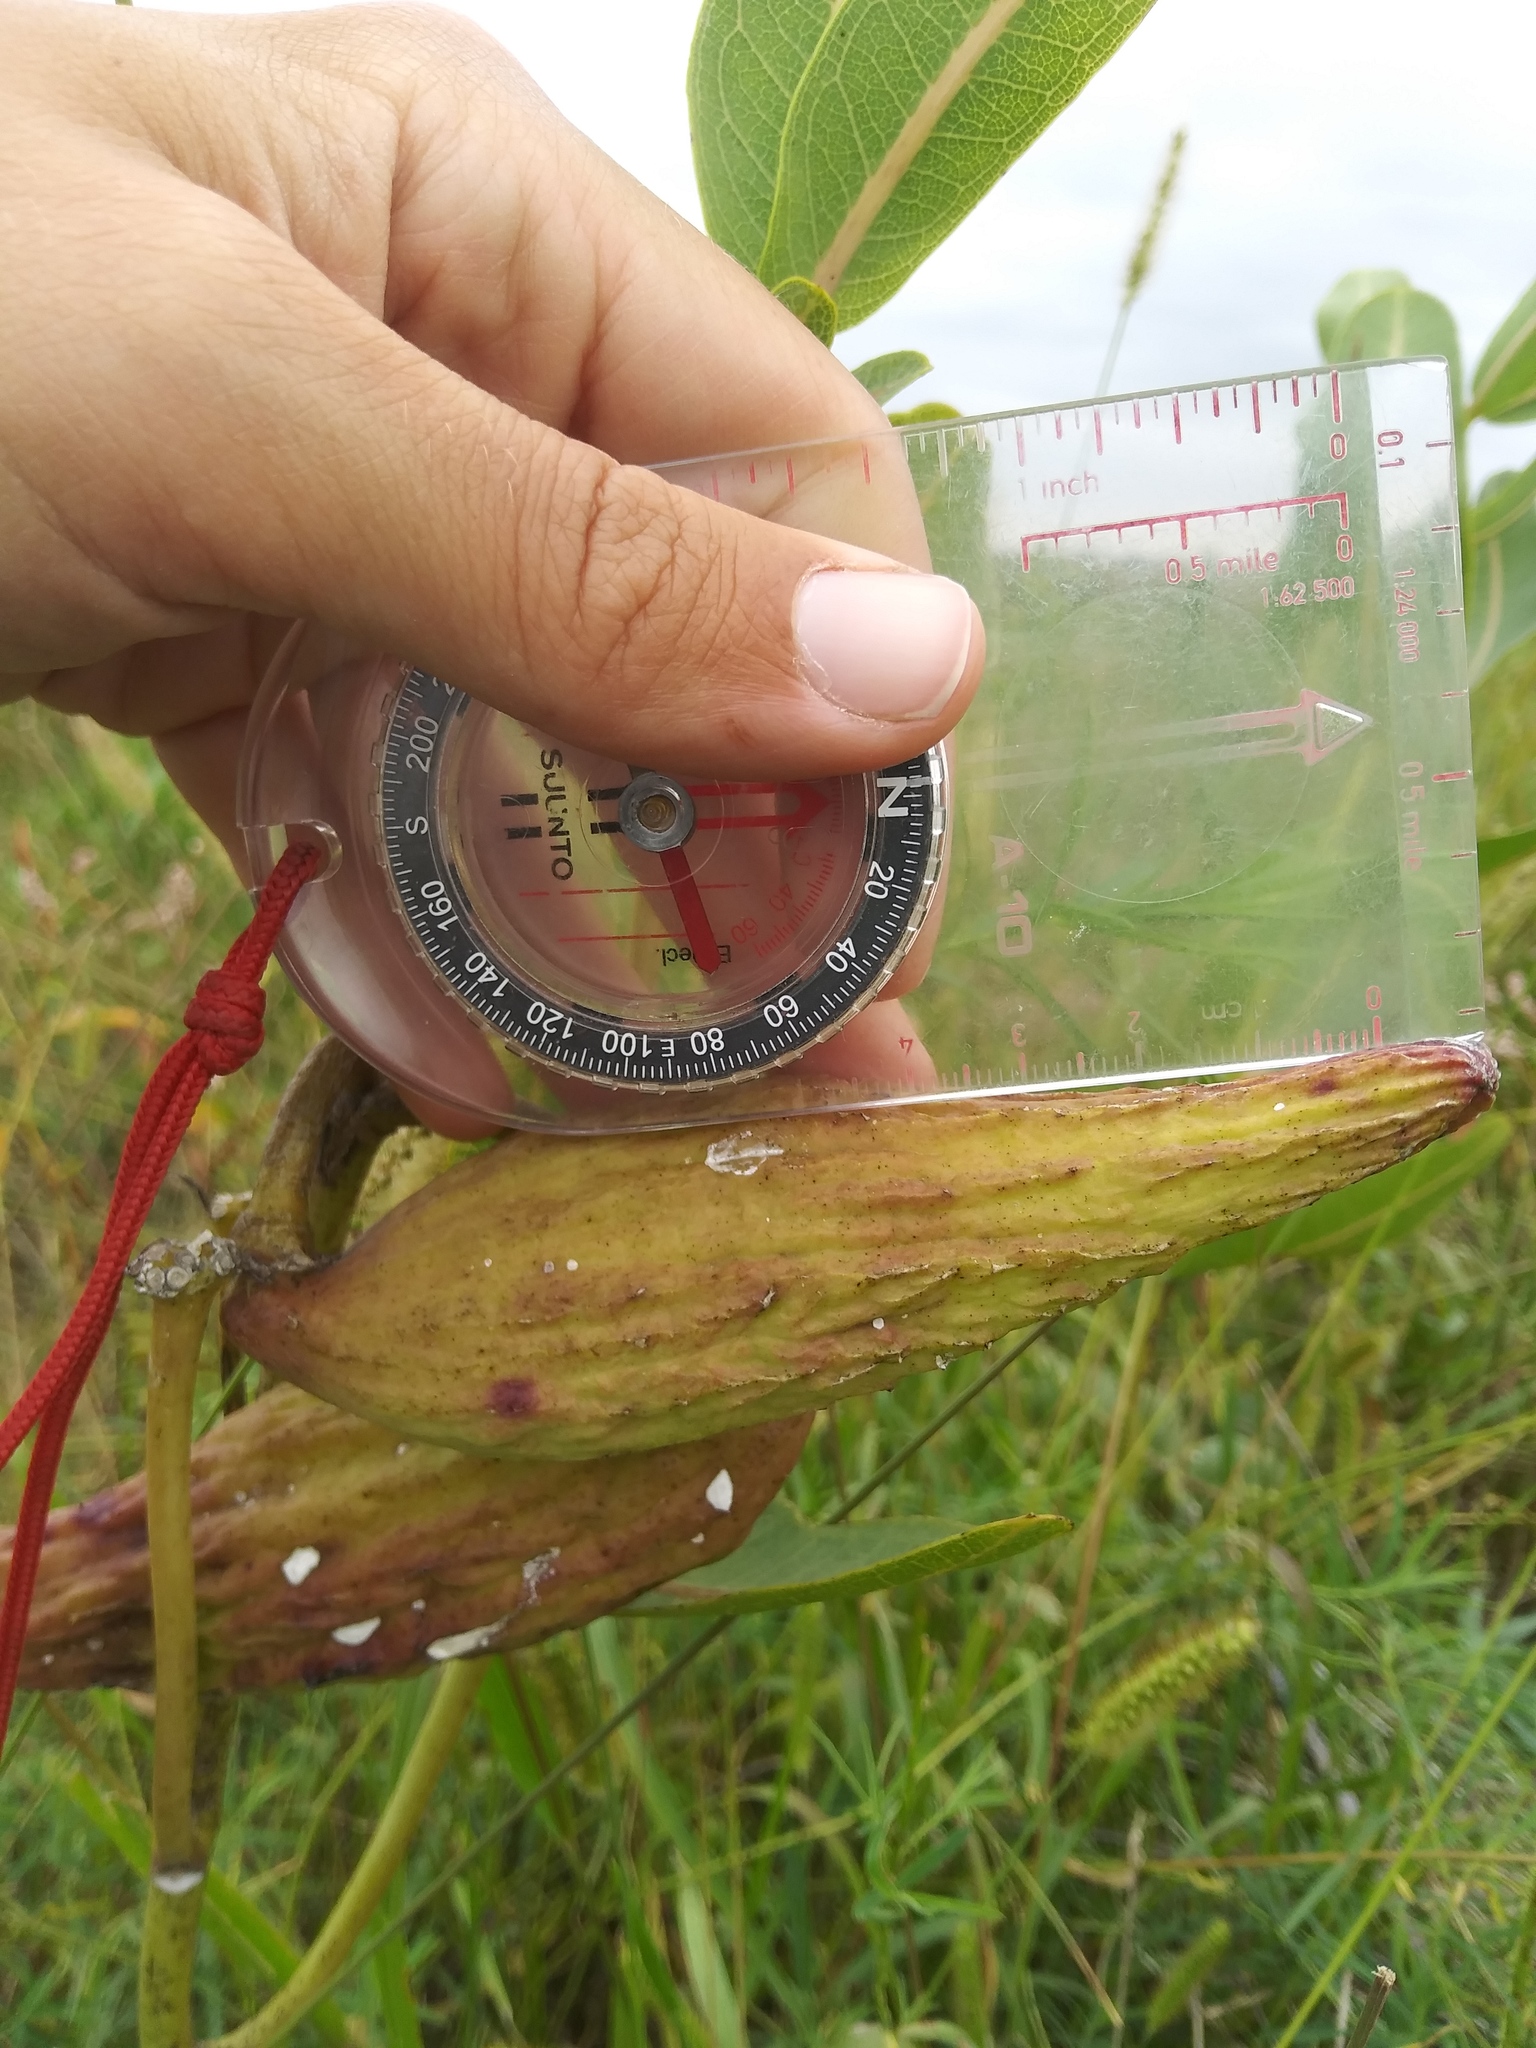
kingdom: Plantae
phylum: Tracheophyta
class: Magnoliopsida
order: Gentianales
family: Apocynaceae
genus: Asclepias
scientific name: Asclepias syriaca
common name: Common milkweed
